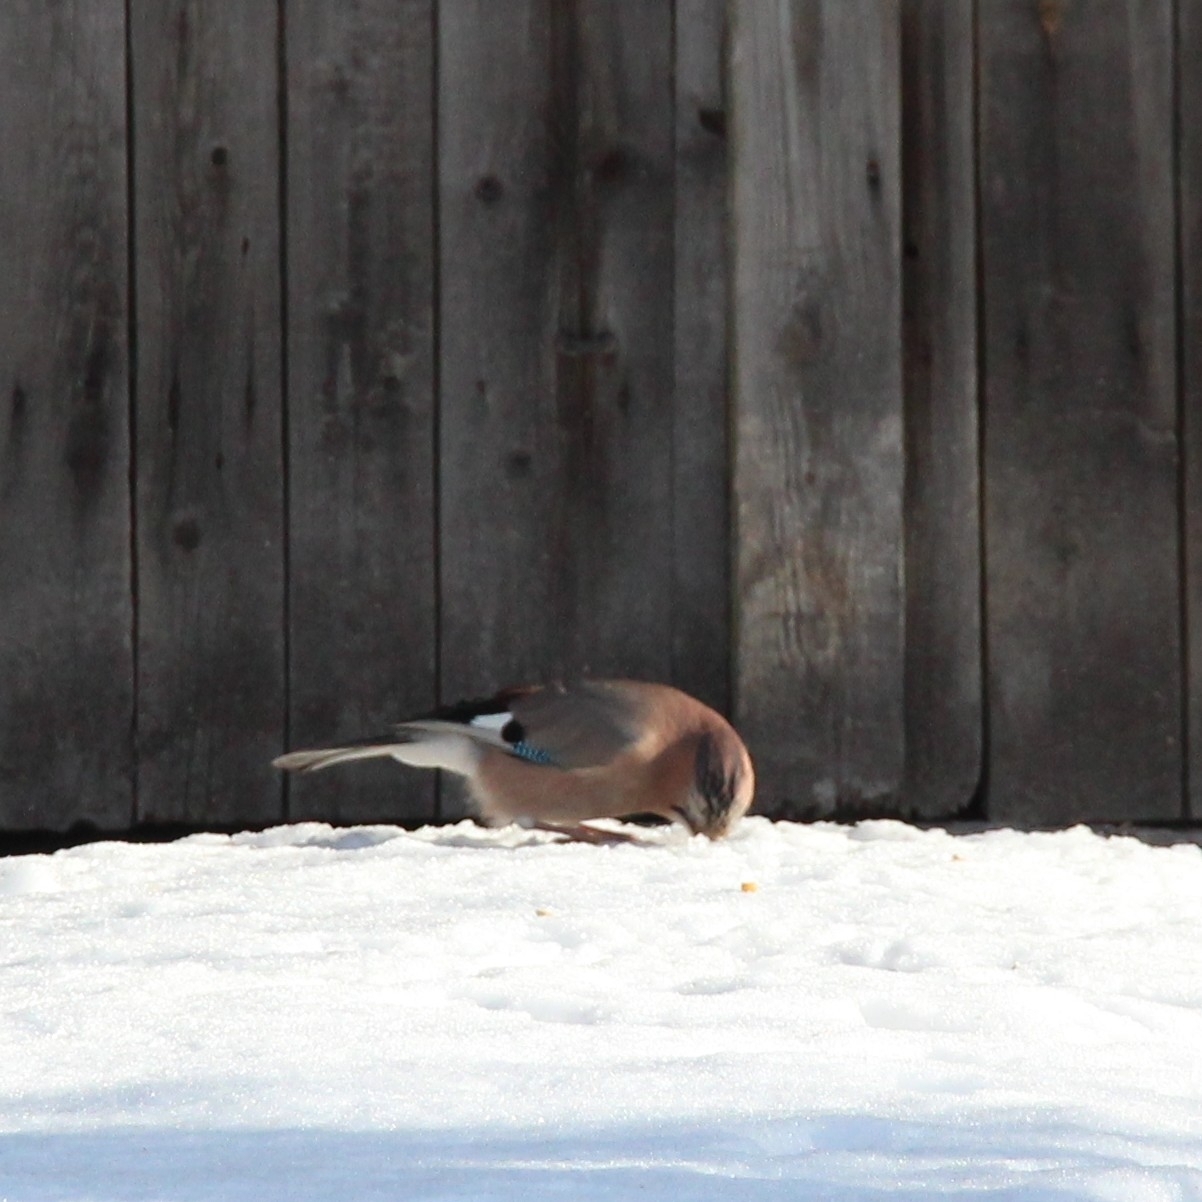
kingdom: Animalia
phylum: Chordata
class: Aves
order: Passeriformes
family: Corvidae
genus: Garrulus
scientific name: Garrulus glandarius
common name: Eurasian jay
